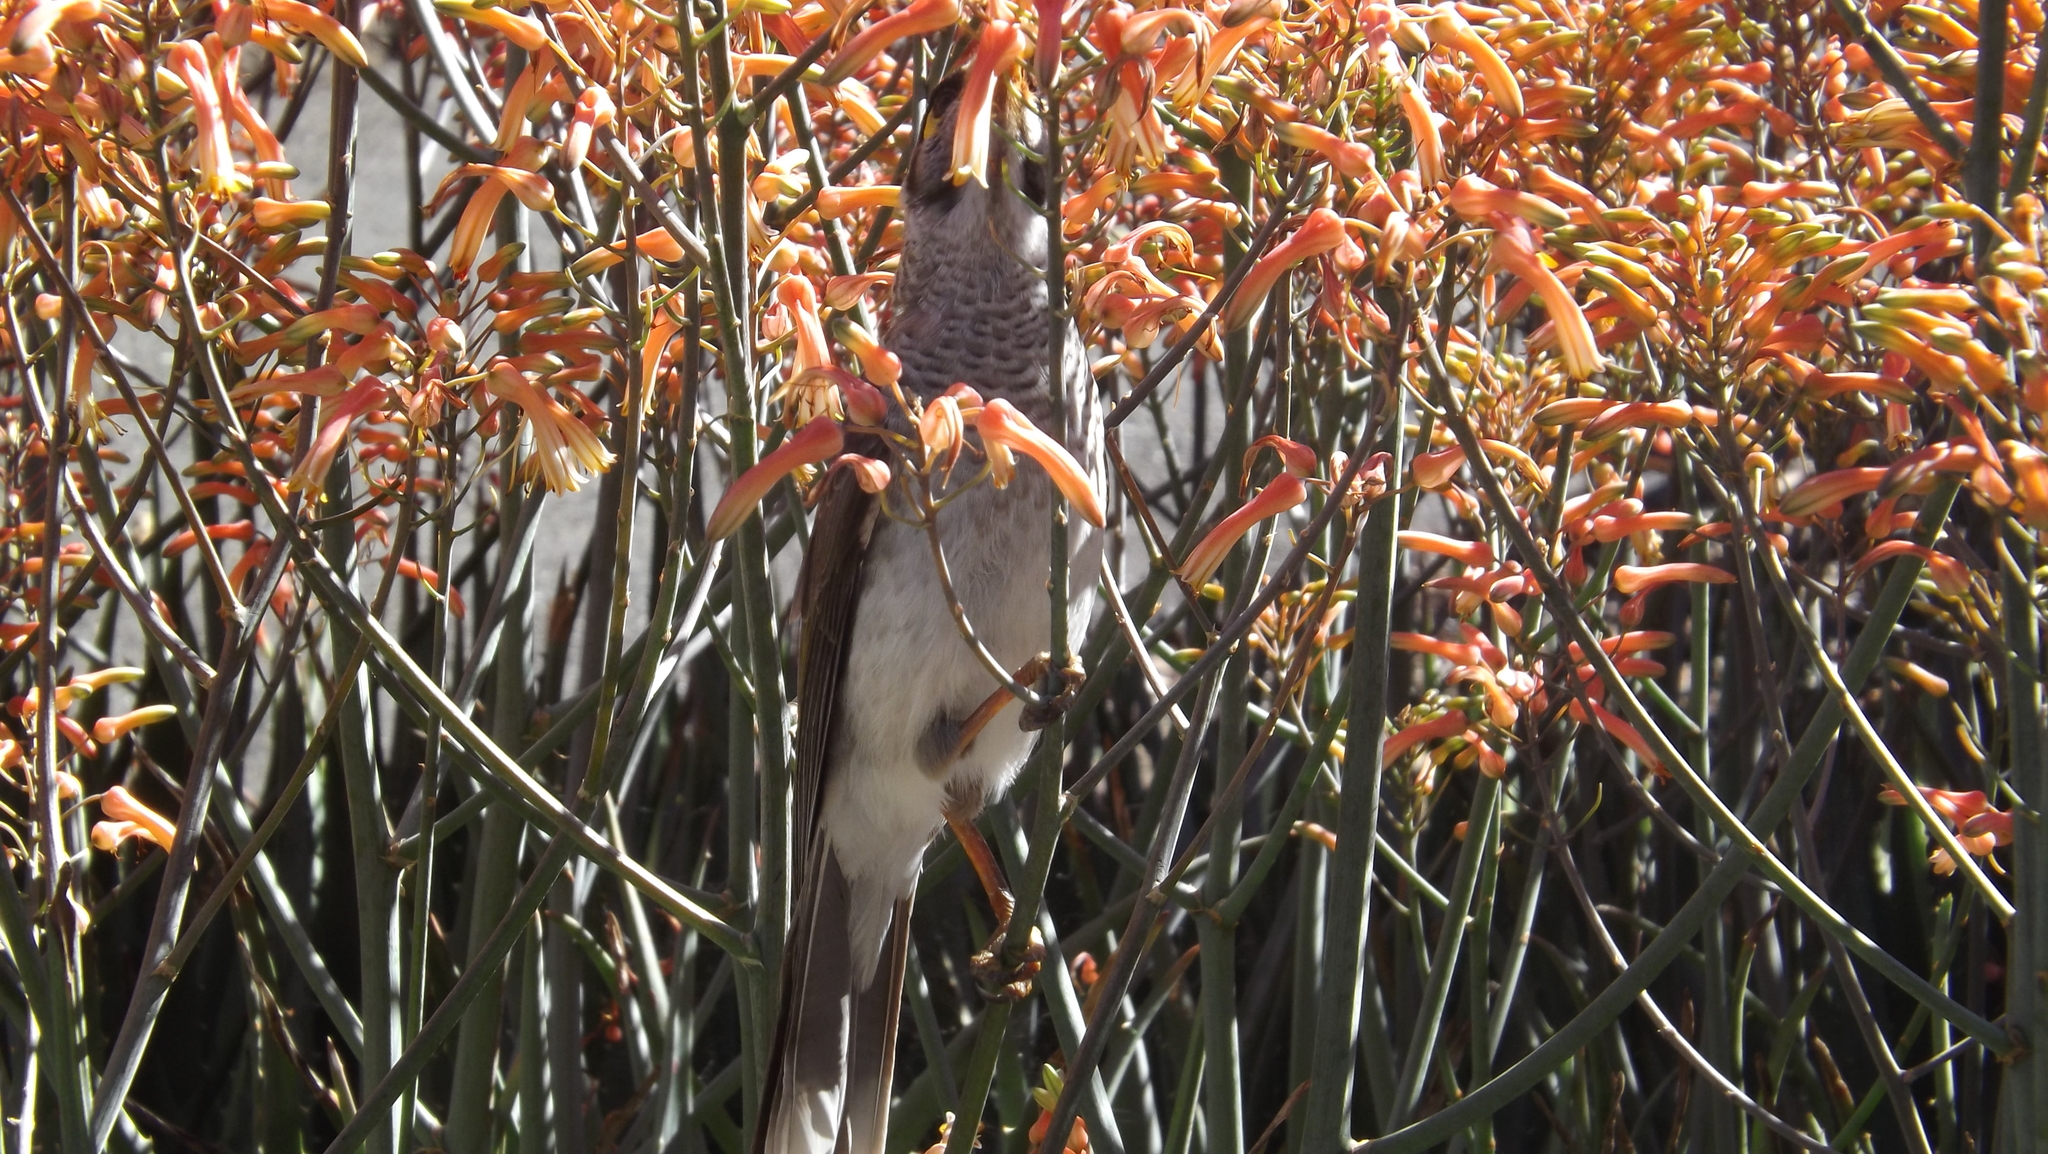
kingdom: Animalia
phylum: Chordata
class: Aves
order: Passeriformes
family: Meliphagidae
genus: Manorina
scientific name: Manorina melanocephala
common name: Noisy miner
